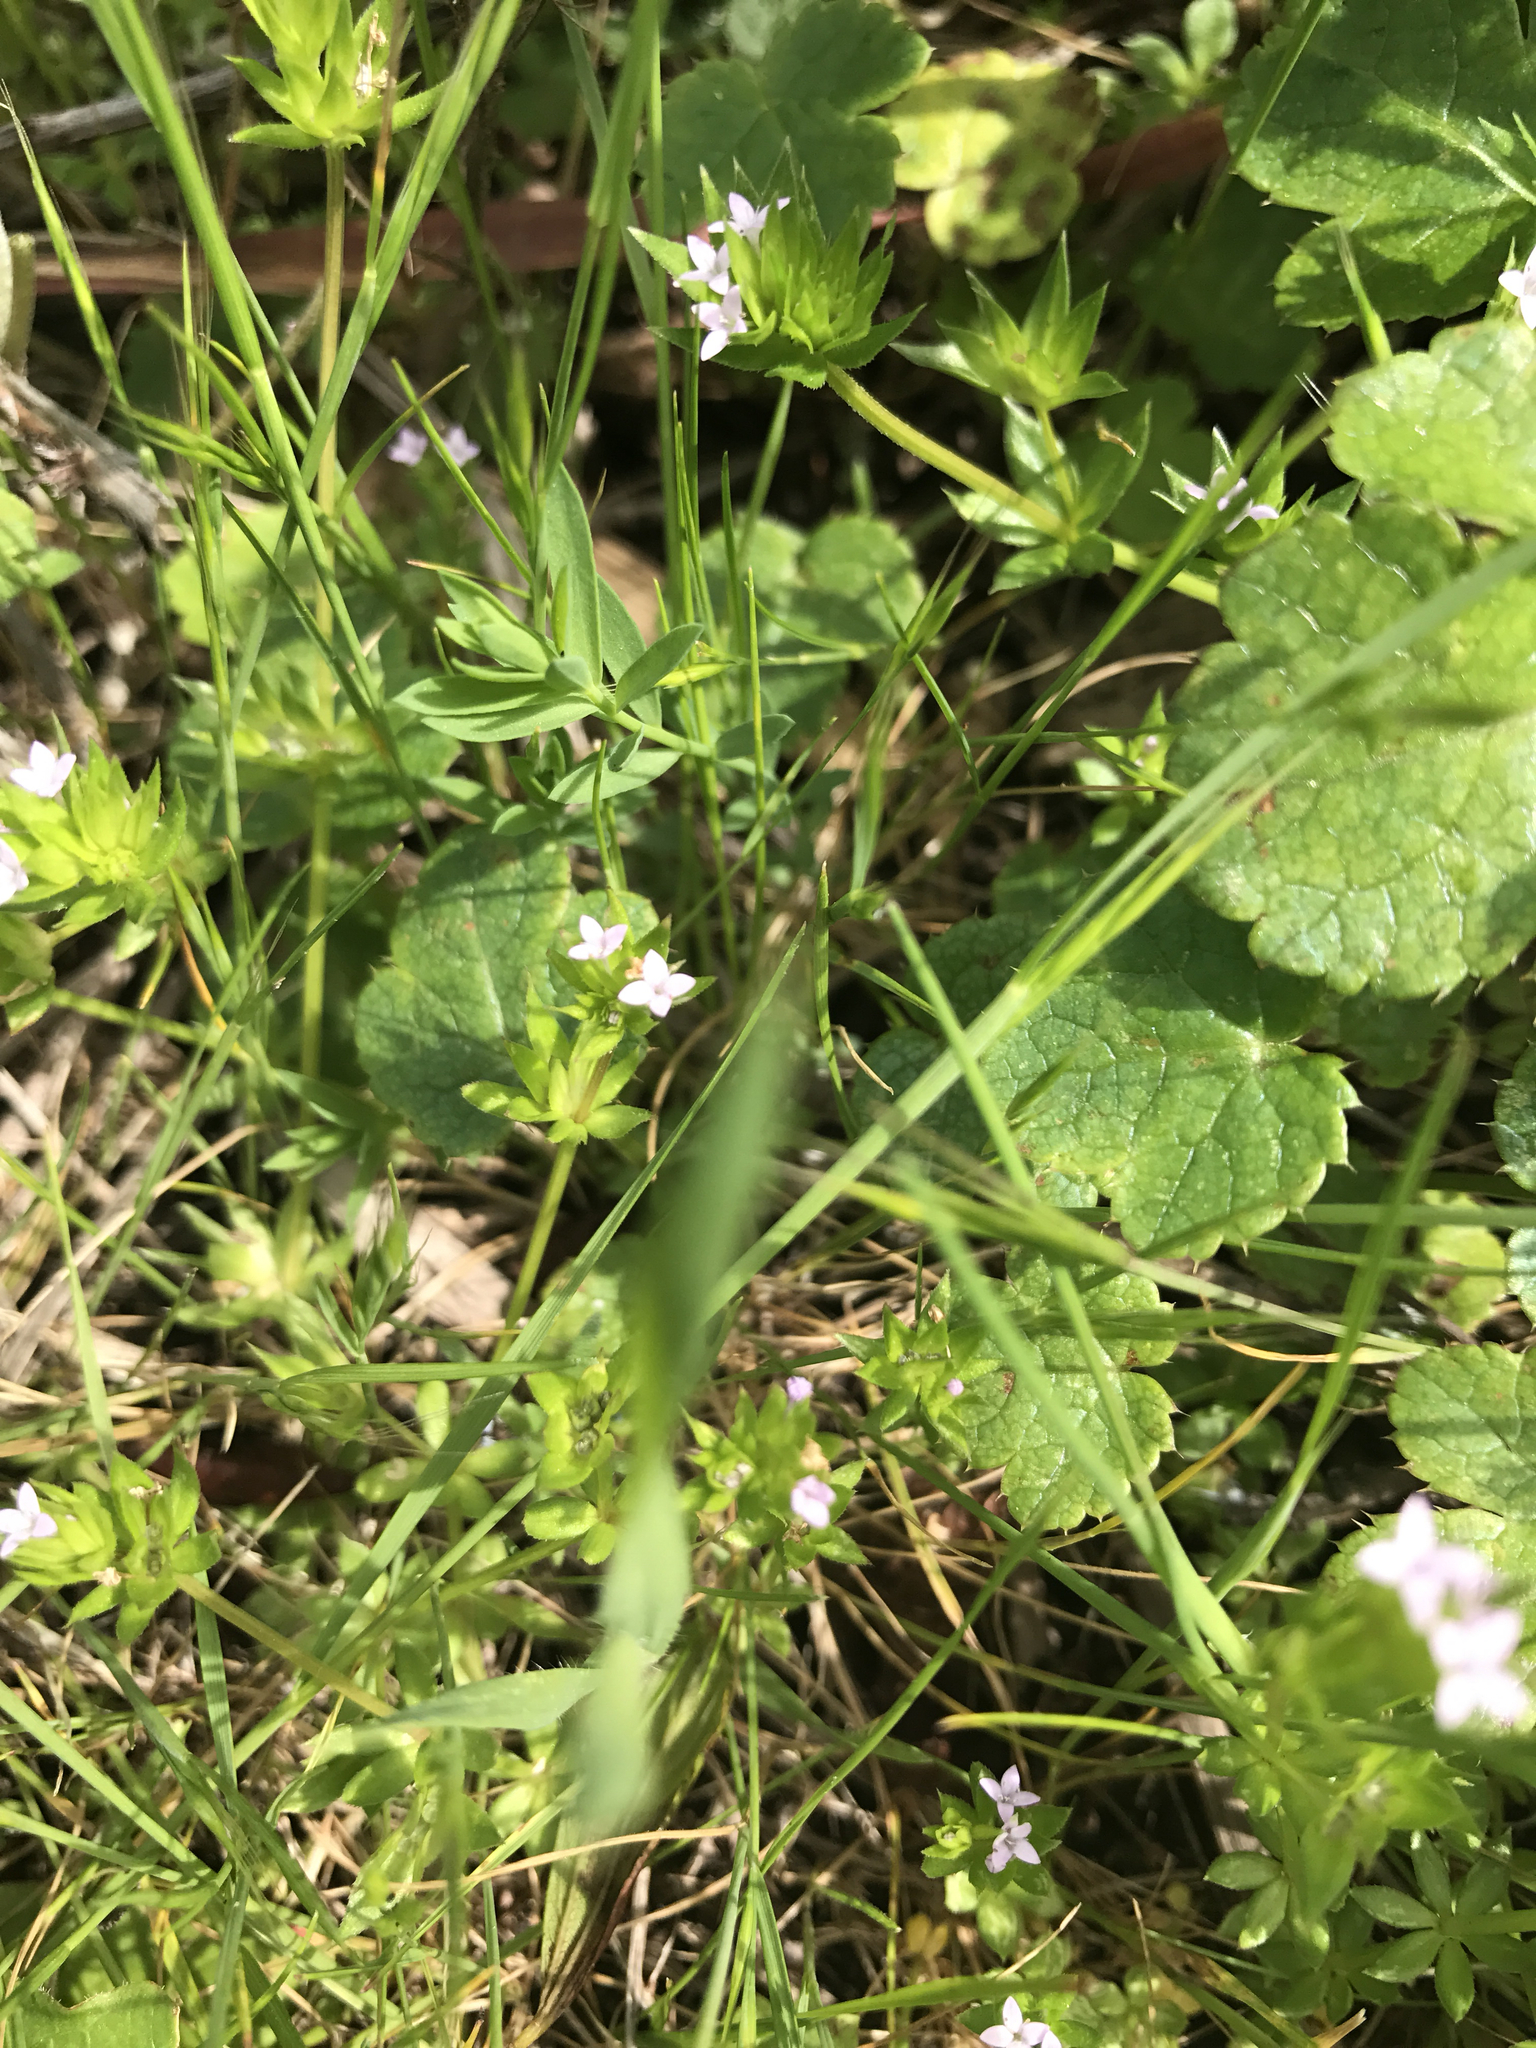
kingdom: Plantae
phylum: Tracheophyta
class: Magnoliopsida
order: Gentianales
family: Rubiaceae
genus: Galium
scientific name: Galium aparine
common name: Cleavers
